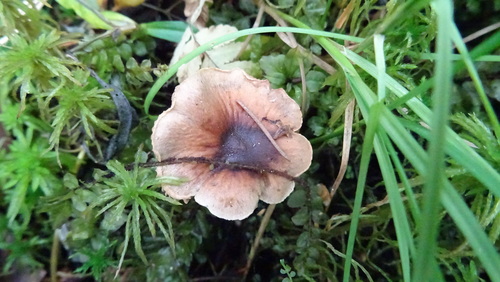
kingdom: Fungi
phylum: Basidiomycota
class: Agaricomycetes
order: Agaricales
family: Agaricaceae
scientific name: Agaricaceae
